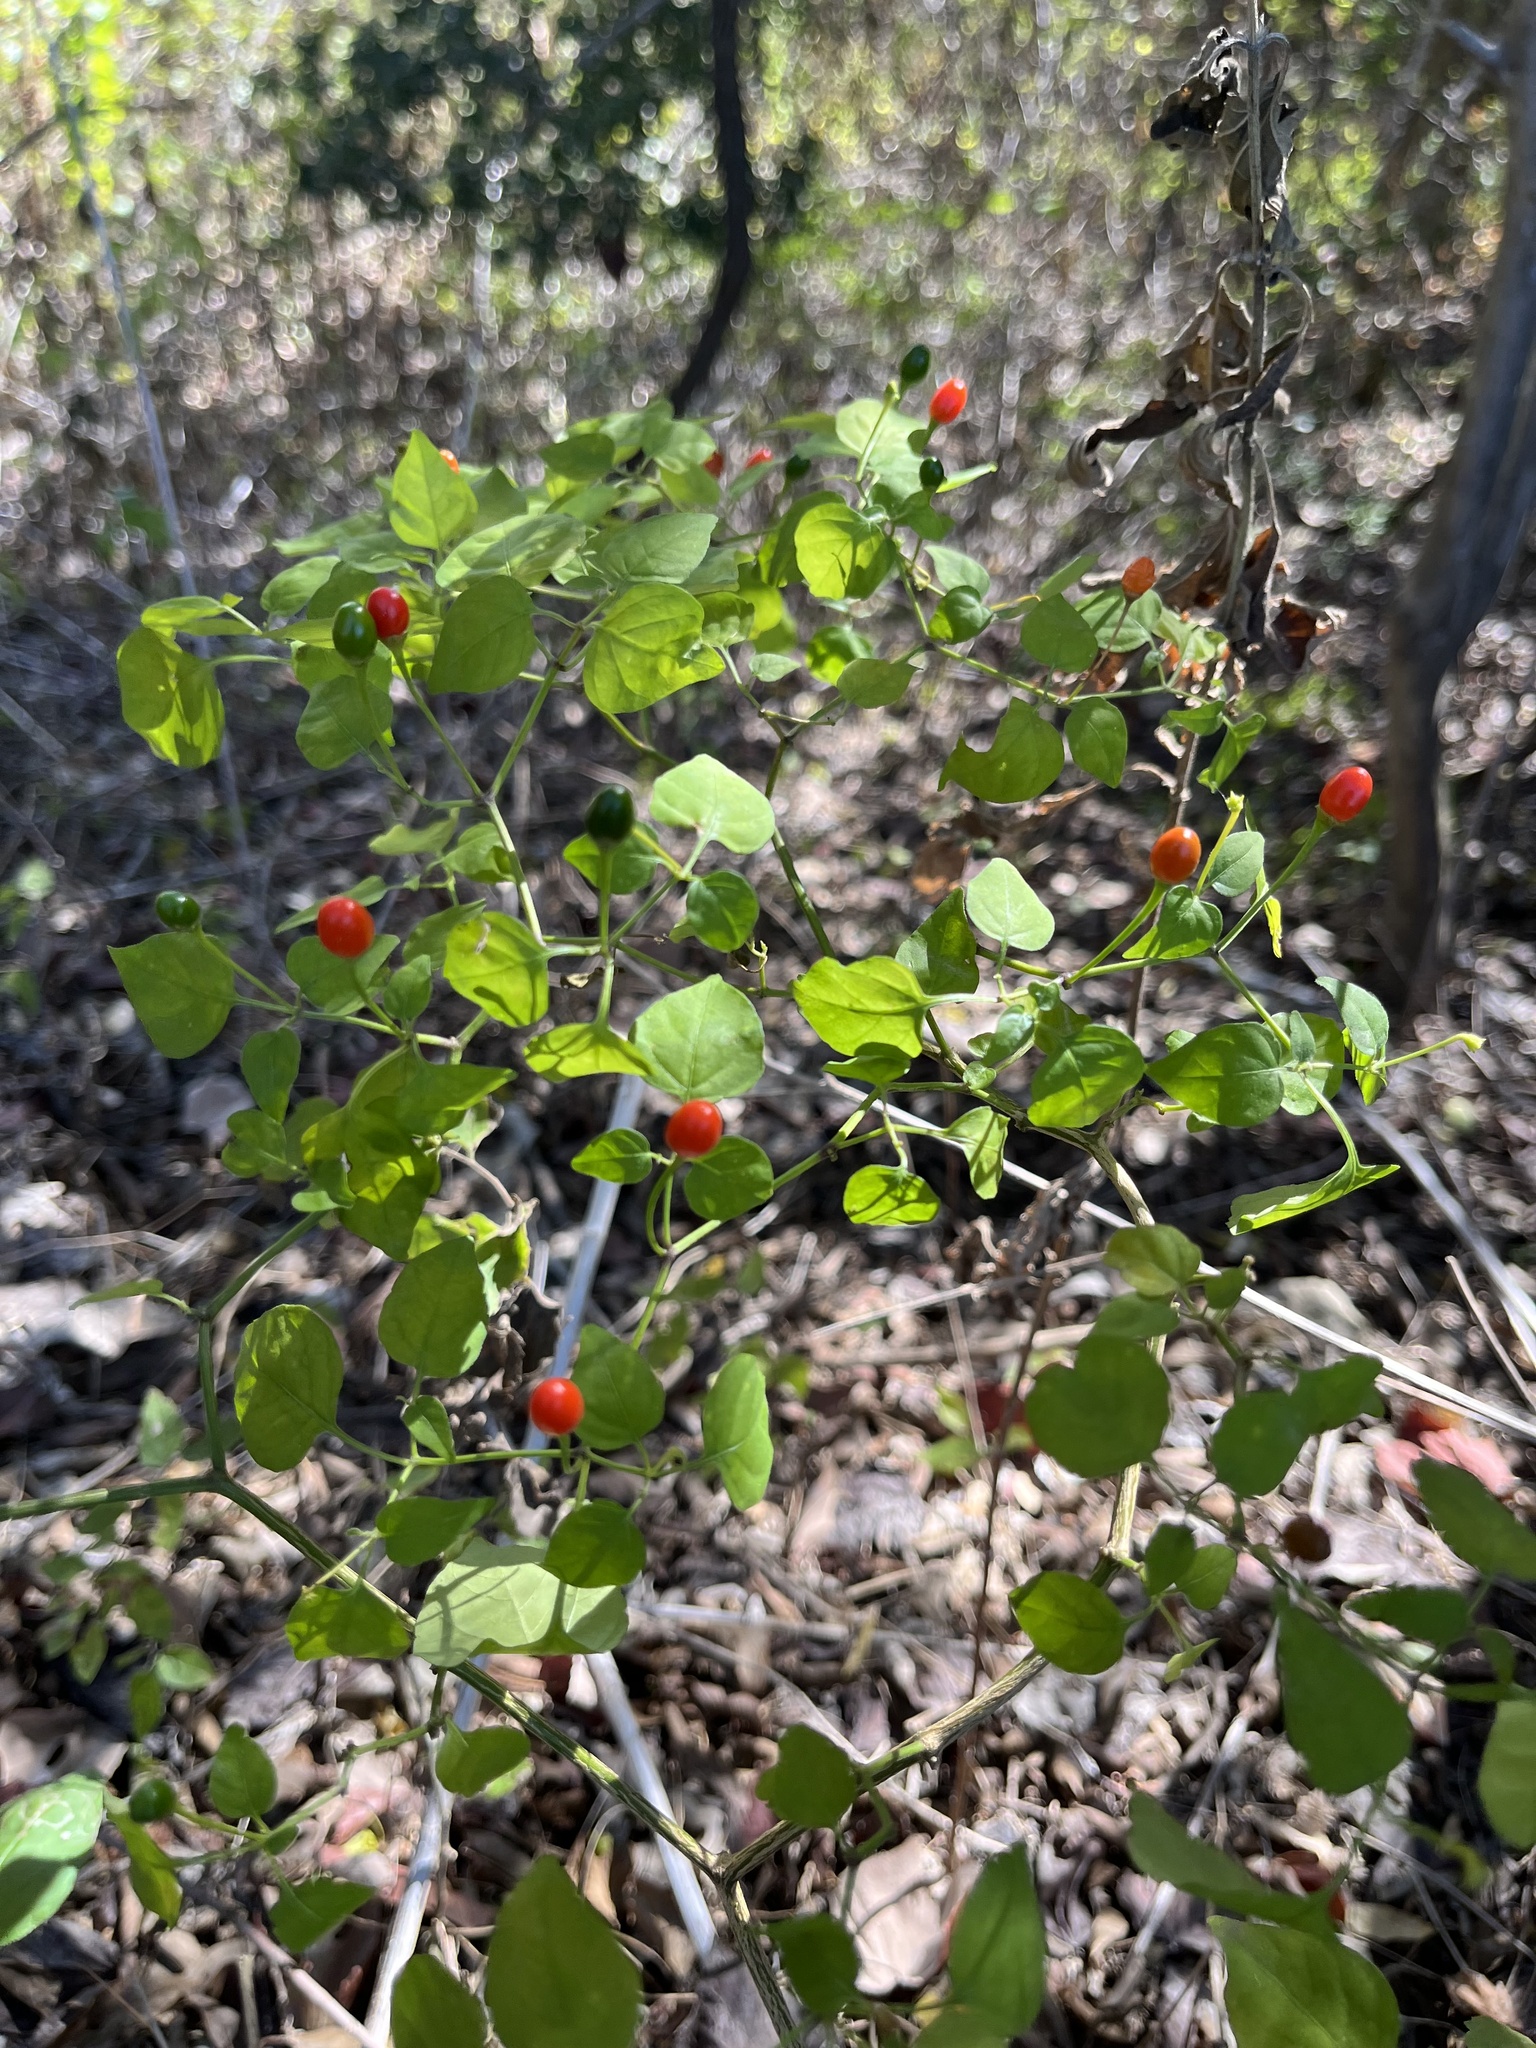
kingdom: Plantae
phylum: Tracheophyta
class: Magnoliopsida
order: Solanales
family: Solanaceae
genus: Capsicum
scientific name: Capsicum annuum
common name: Sweet pepper
